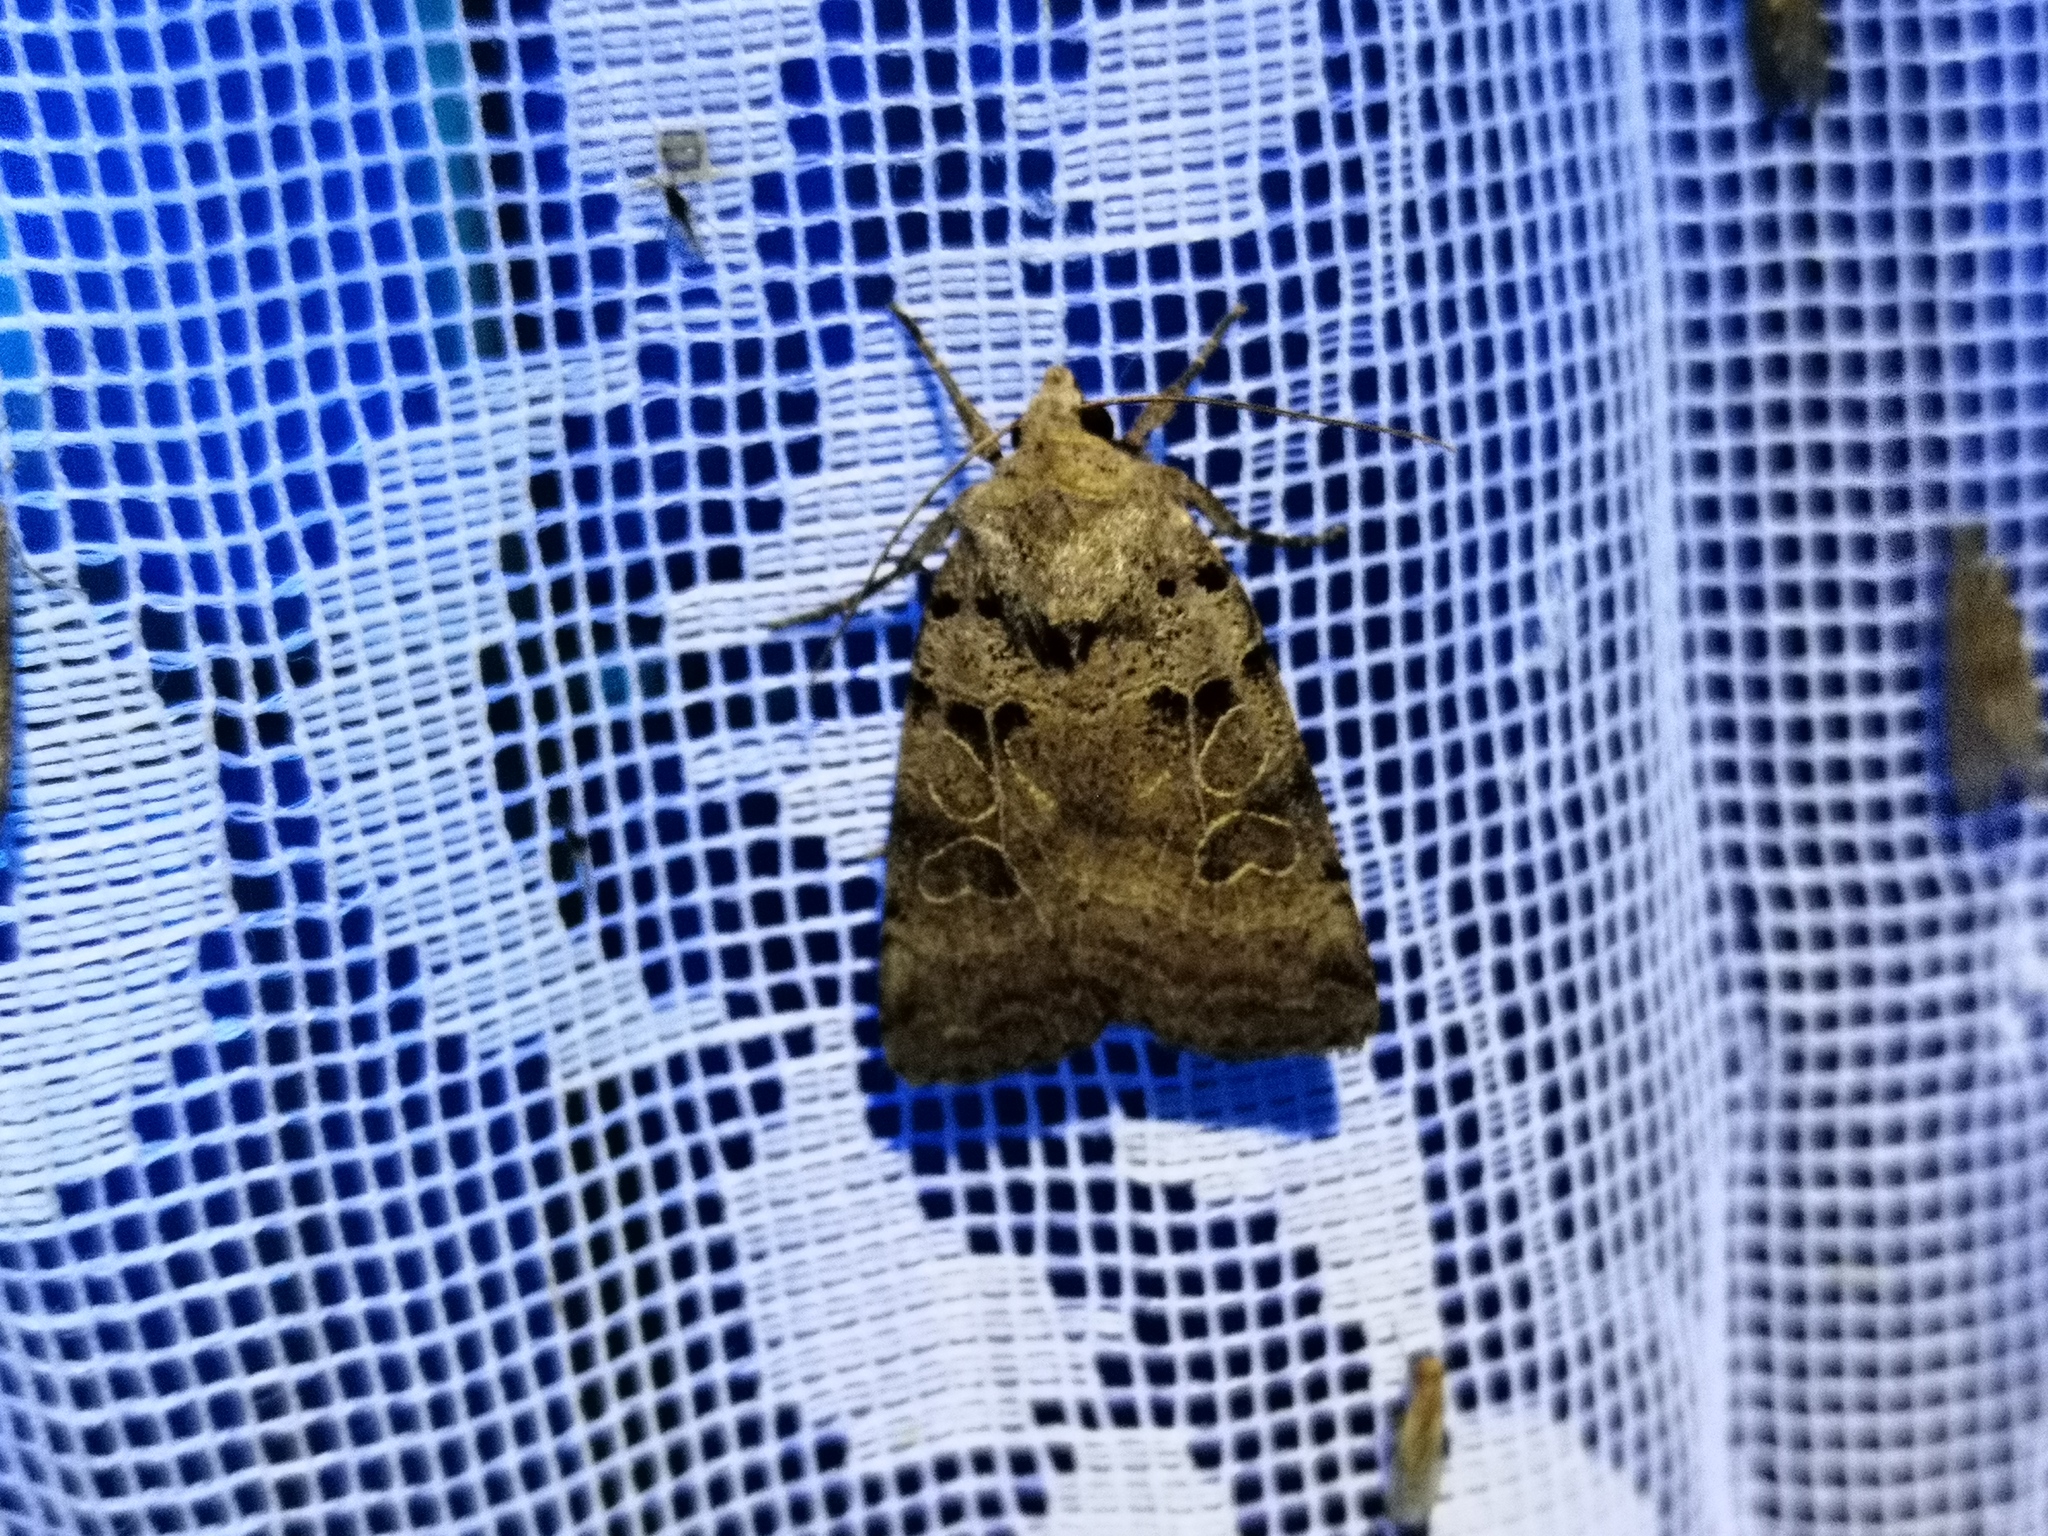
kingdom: Animalia
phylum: Arthropoda
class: Insecta
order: Lepidoptera
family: Noctuidae
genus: Eugnorisma
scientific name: Eugnorisma depuncta
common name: Plain clay
